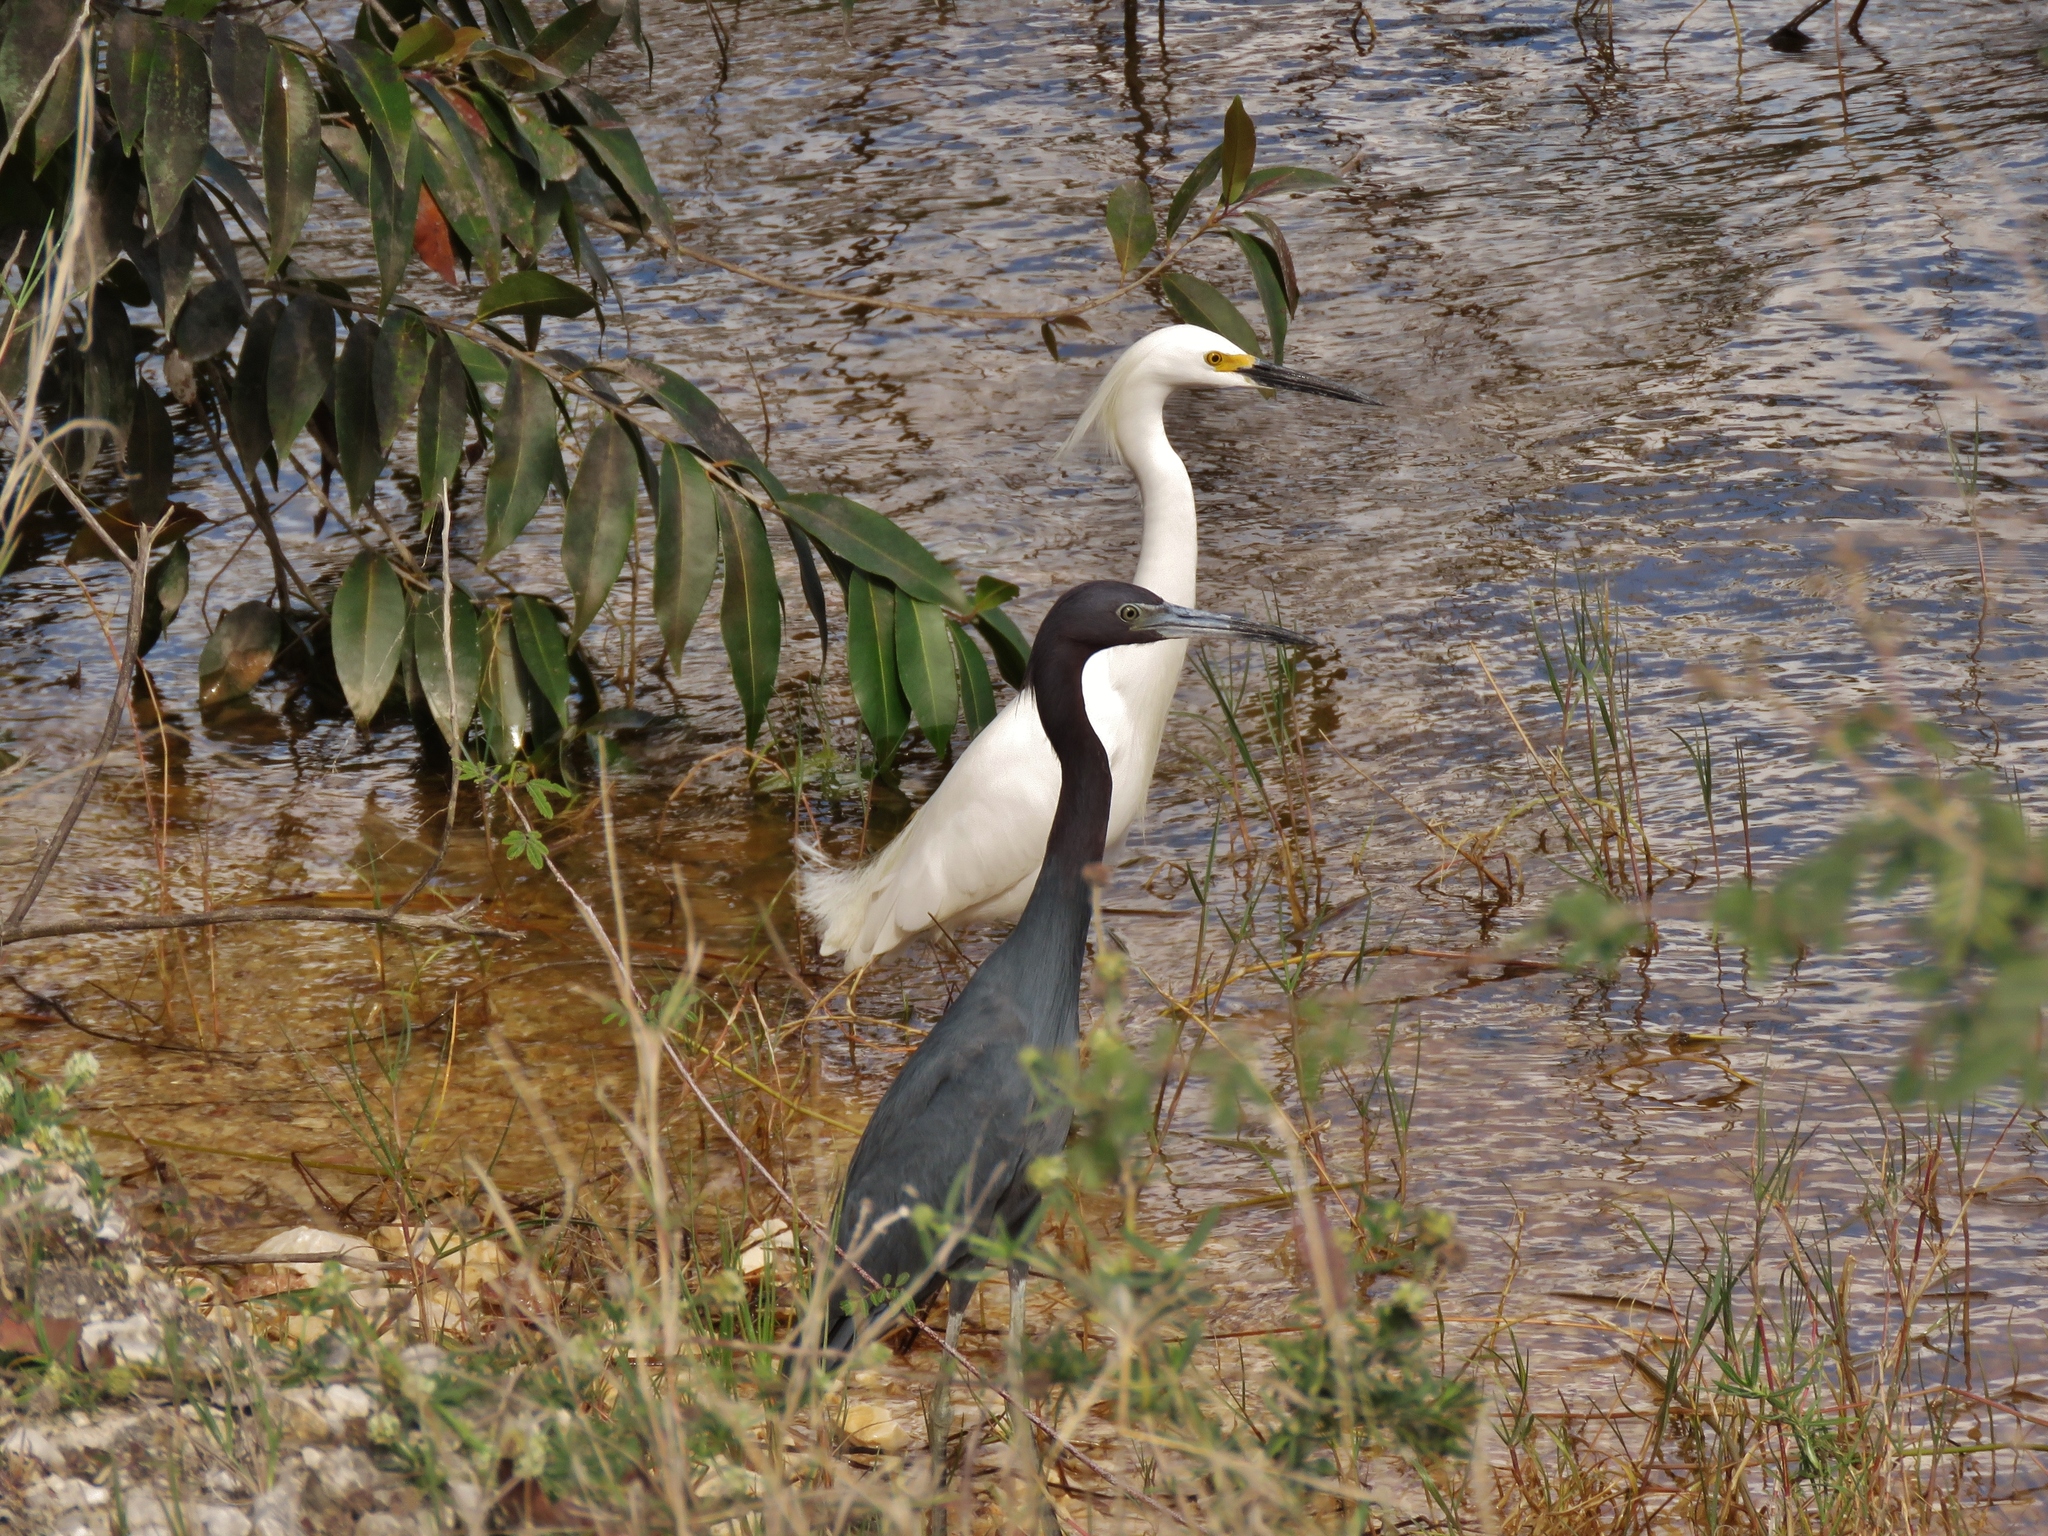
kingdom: Animalia
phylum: Chordata
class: Aves
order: Pelecaniformes
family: Ardeidae
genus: Egretta
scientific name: Egretta thula
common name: Snowy egret
